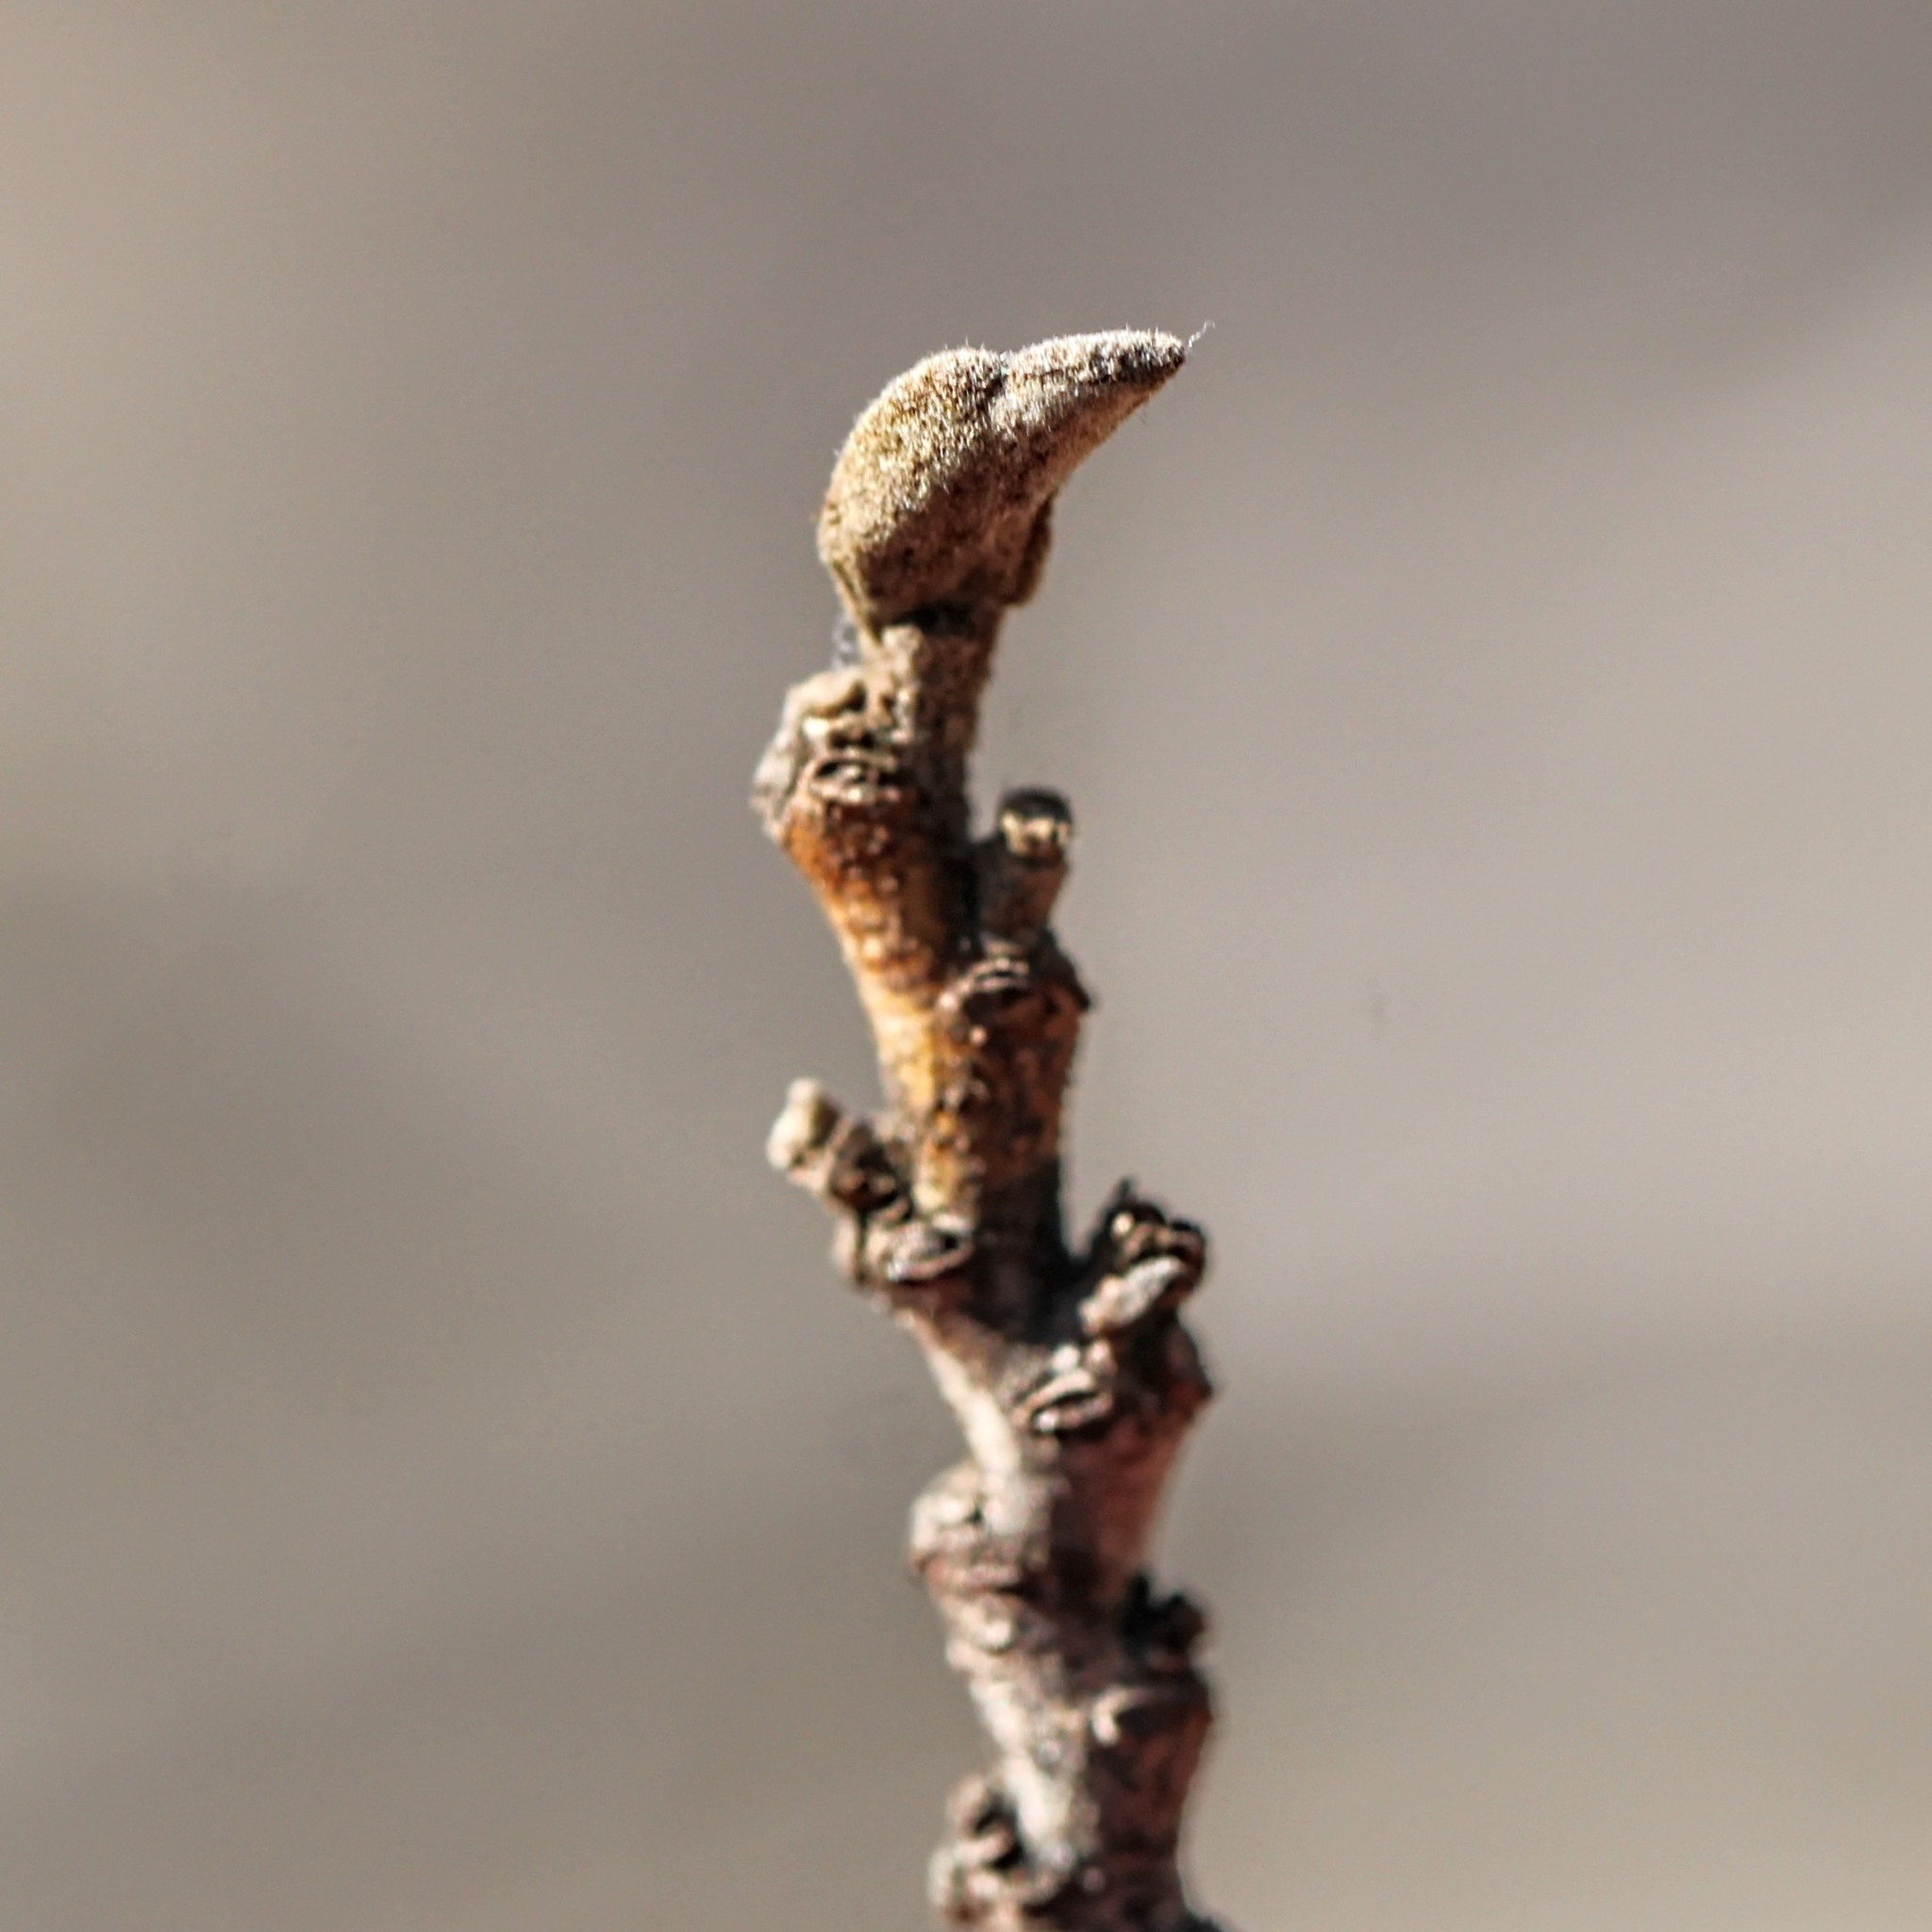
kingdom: Plantae
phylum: Tracheophyta
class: Magnoliopsida
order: Saxifragales
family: Hamamelidaceae
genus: Hamamelis
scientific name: Hamamelis virginiana
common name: Witch-hazel
